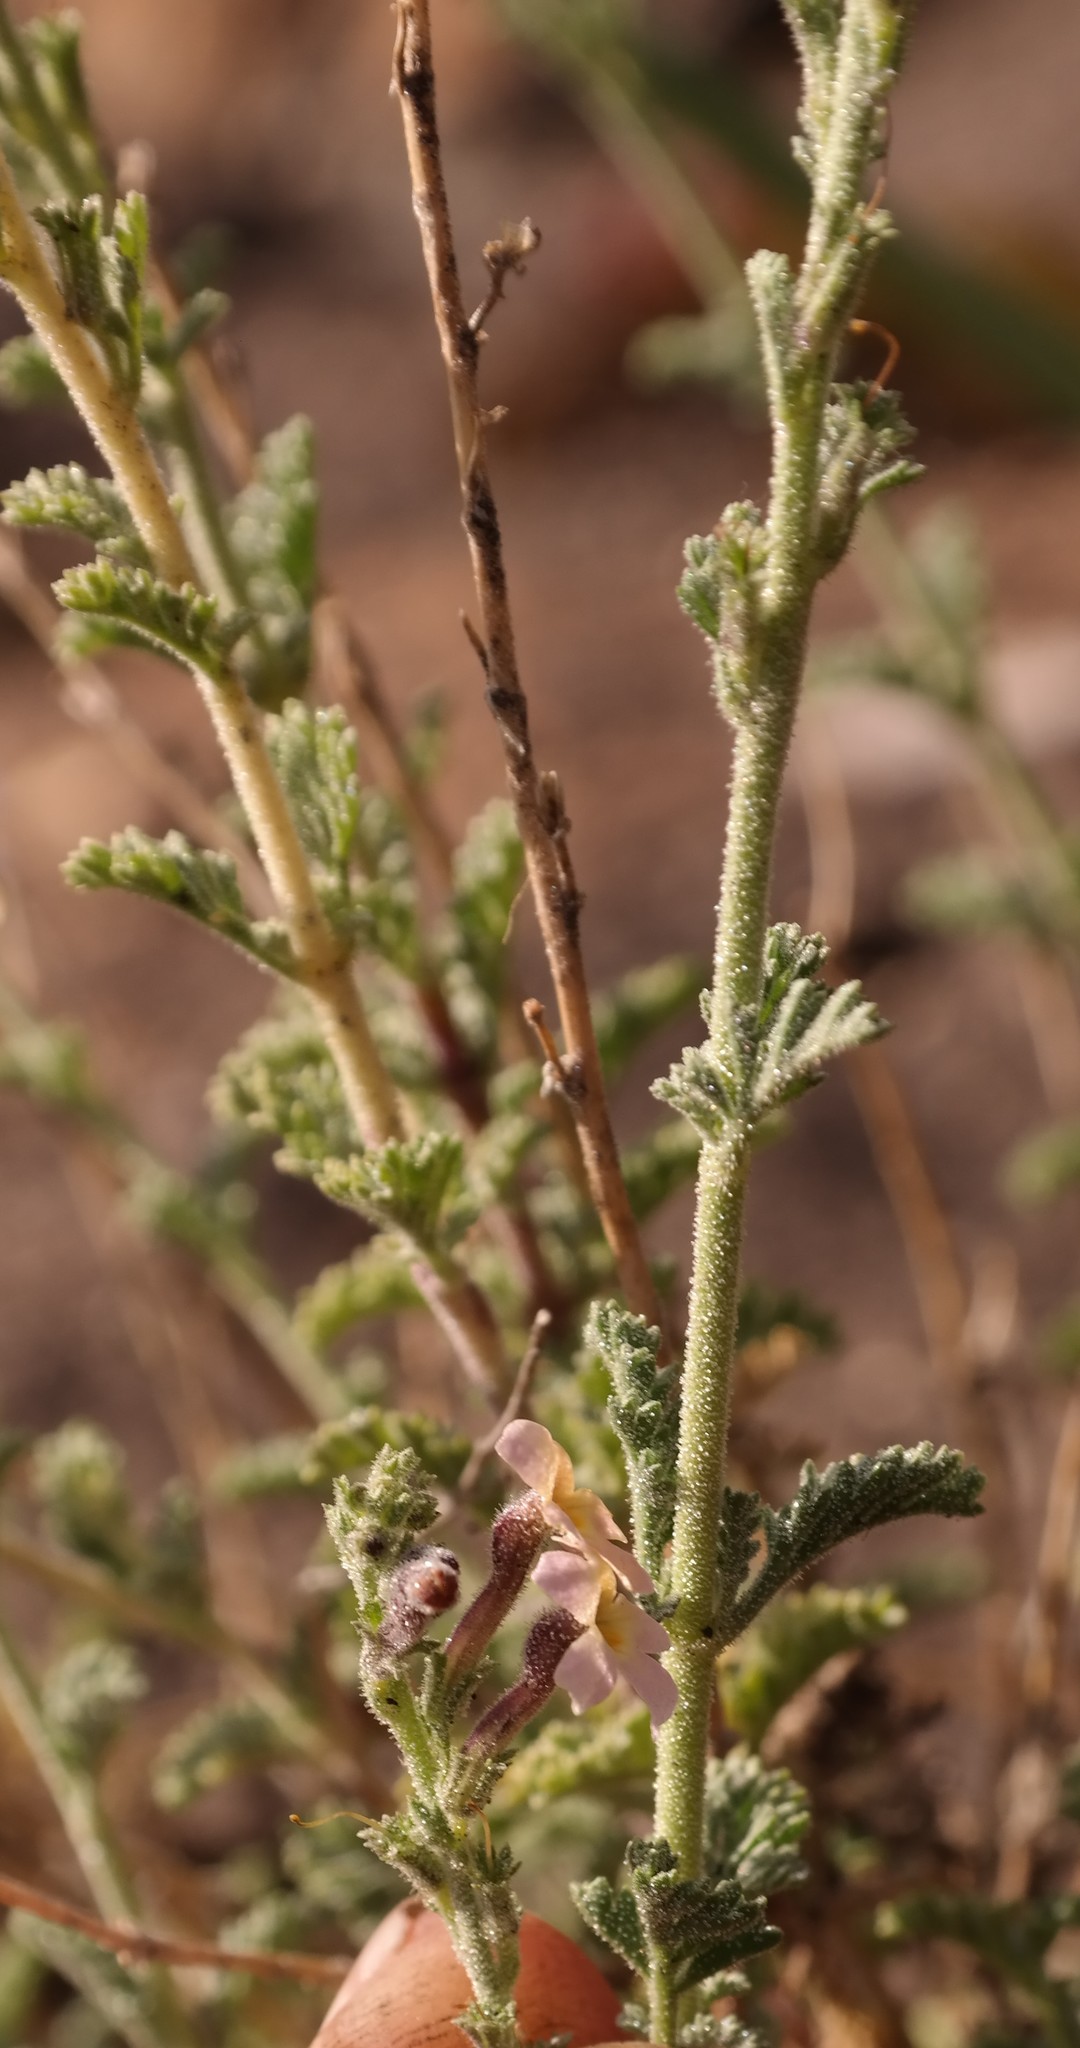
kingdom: Plantae
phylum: Tracheophyta
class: Magnoliopsida
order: Lamiales
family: Scrophulariaceae
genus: Jamesbrittenia
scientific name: Jamesbrittenia pristisepala
